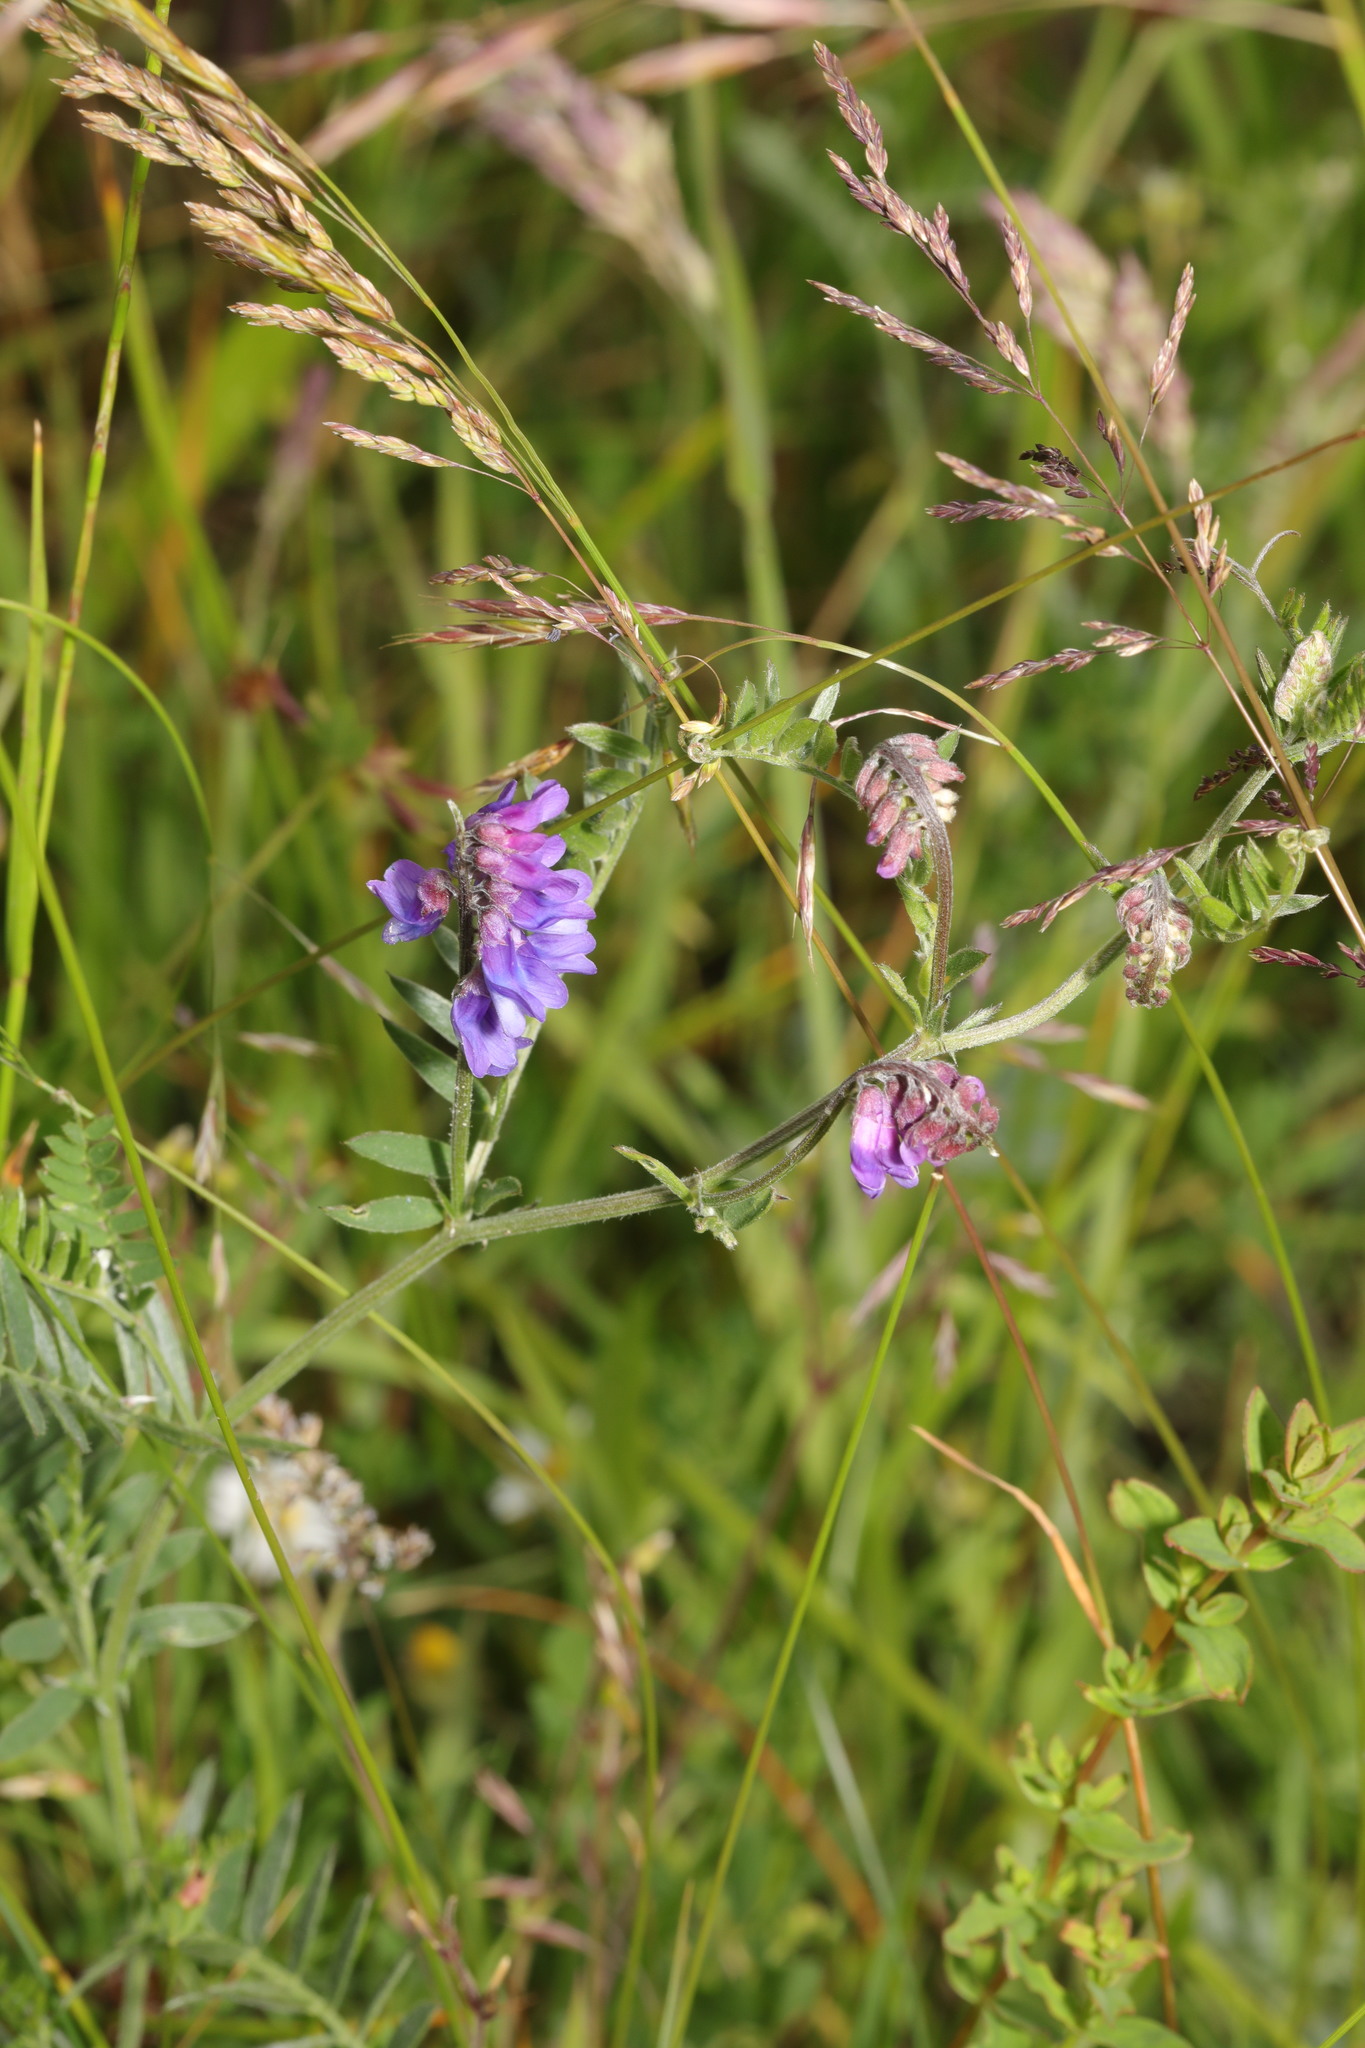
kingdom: Plantae
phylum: Tracheophyta
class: Magnoliopsida
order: Fabales
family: Fabaceae
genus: Vicia
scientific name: Vicia cracca
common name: Bird vetch
